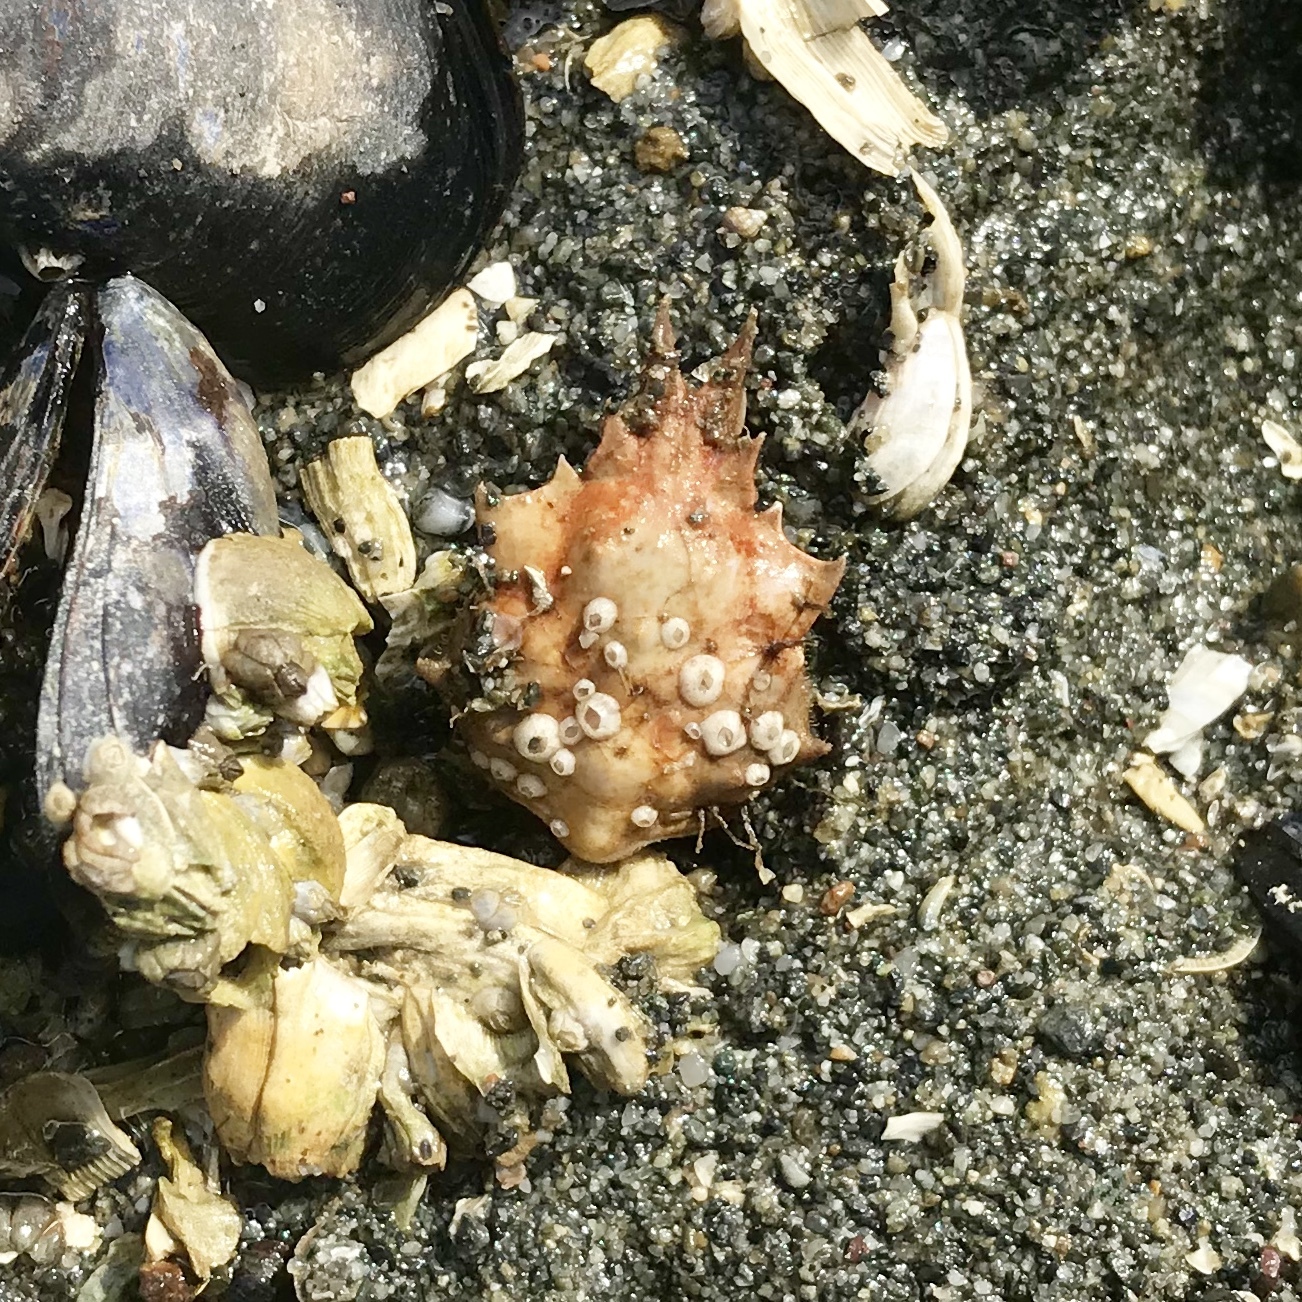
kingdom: Animalia
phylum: Arthropoda
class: Malacostraca
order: Decapoda
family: Epialtidae
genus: Pugettia
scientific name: Pugettia gracilis
